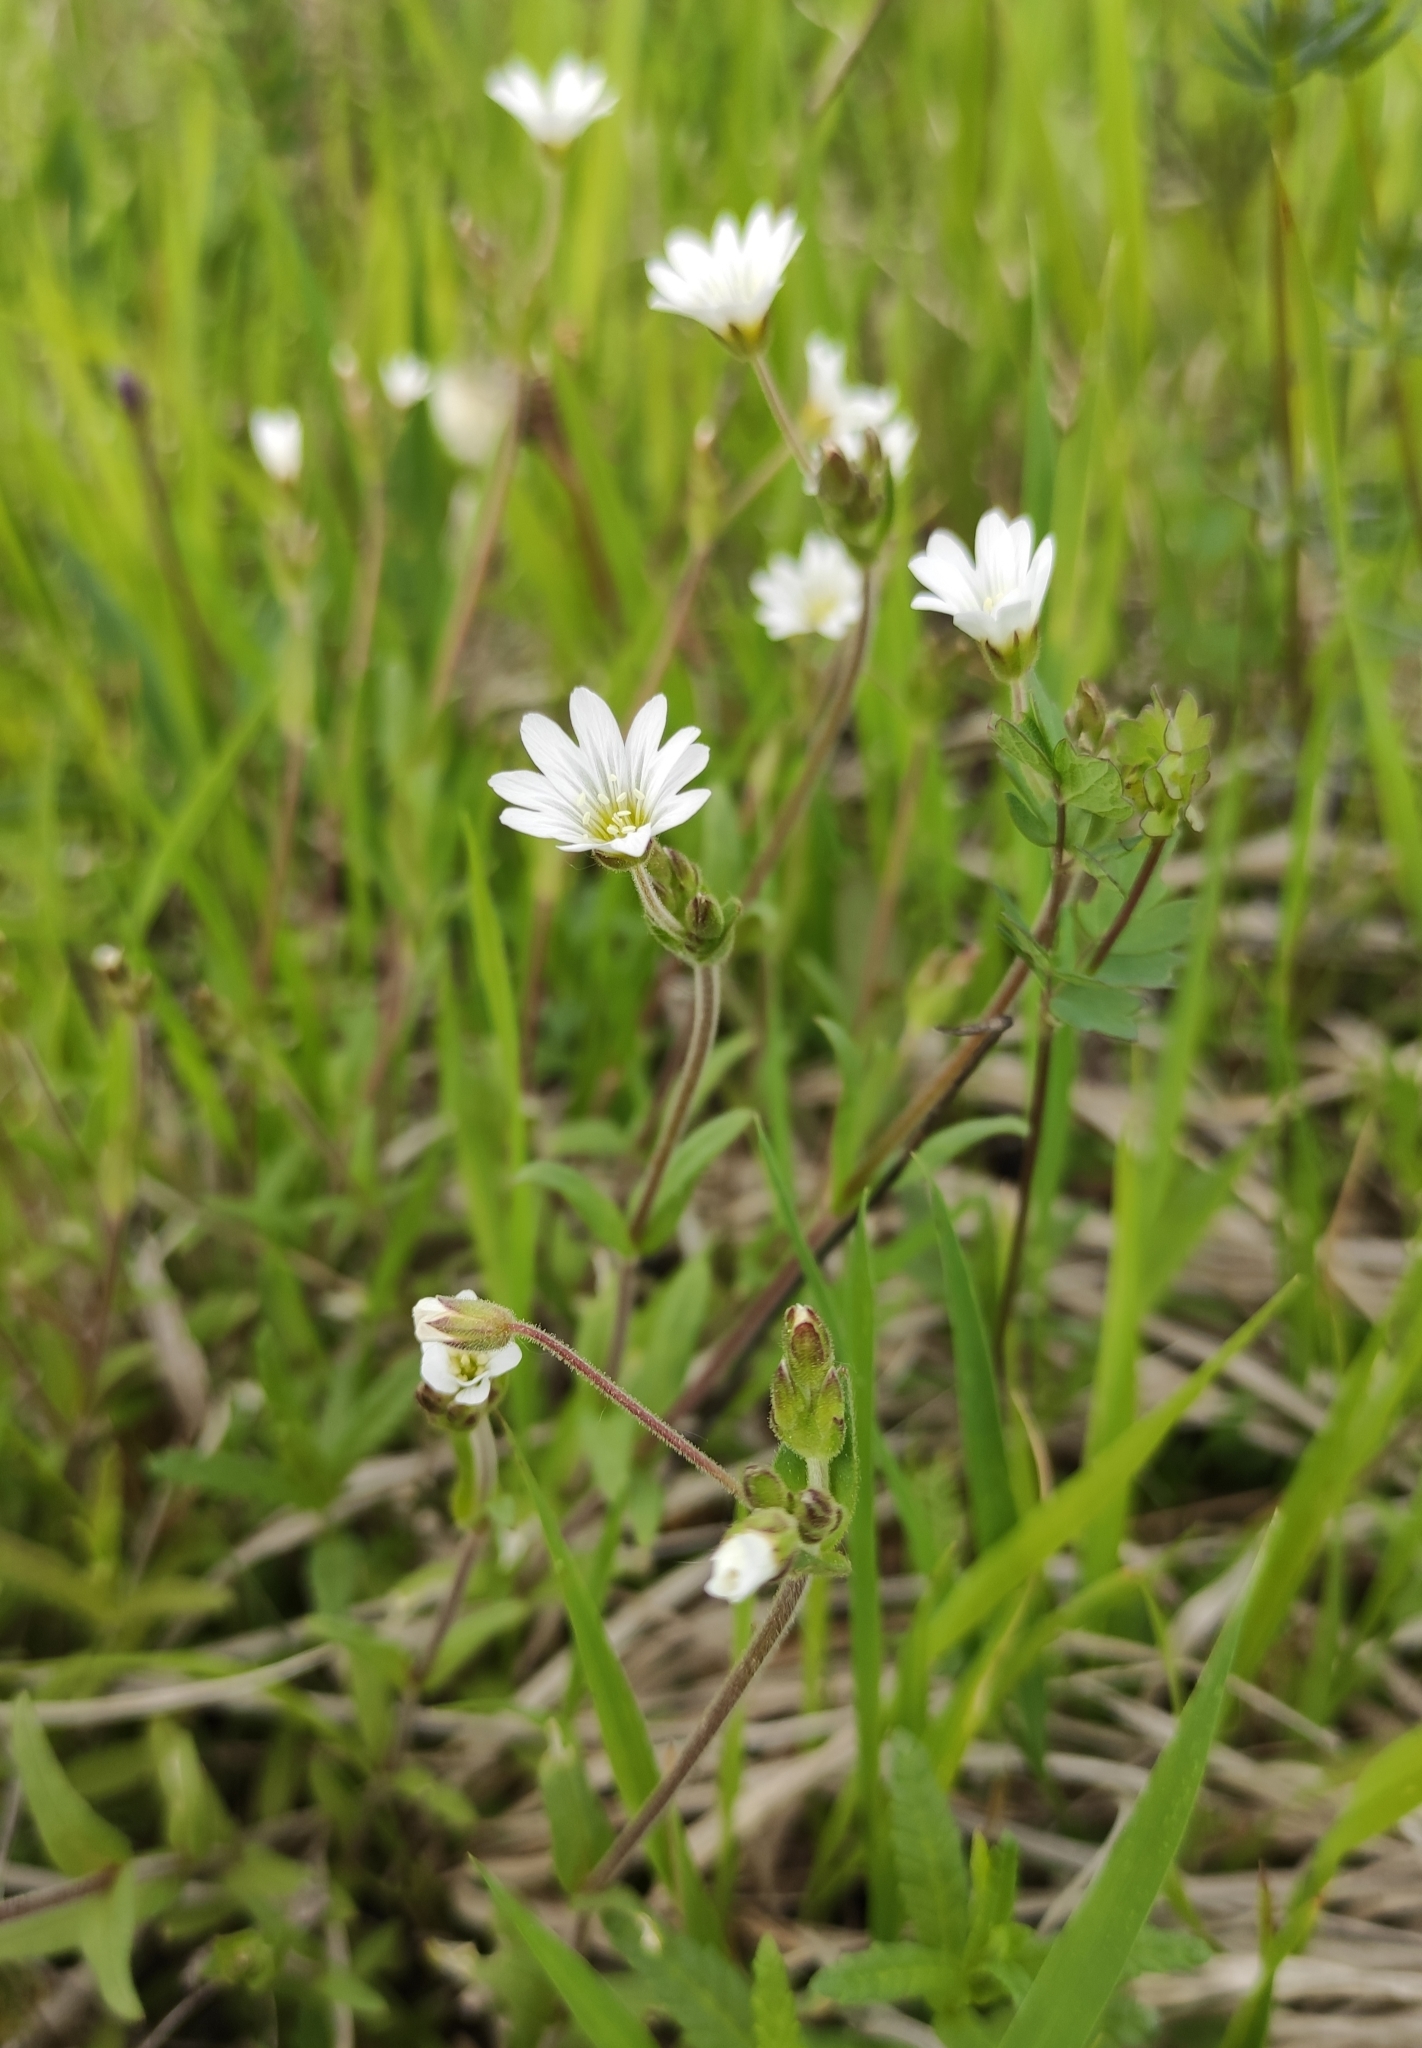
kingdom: Plantae
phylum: Tracheophyta
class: Magnoliopsida
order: Caryophyllales
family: Caryophyllaceae
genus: Cerastium
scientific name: Cerastium arvense
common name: Field mouse-ear
